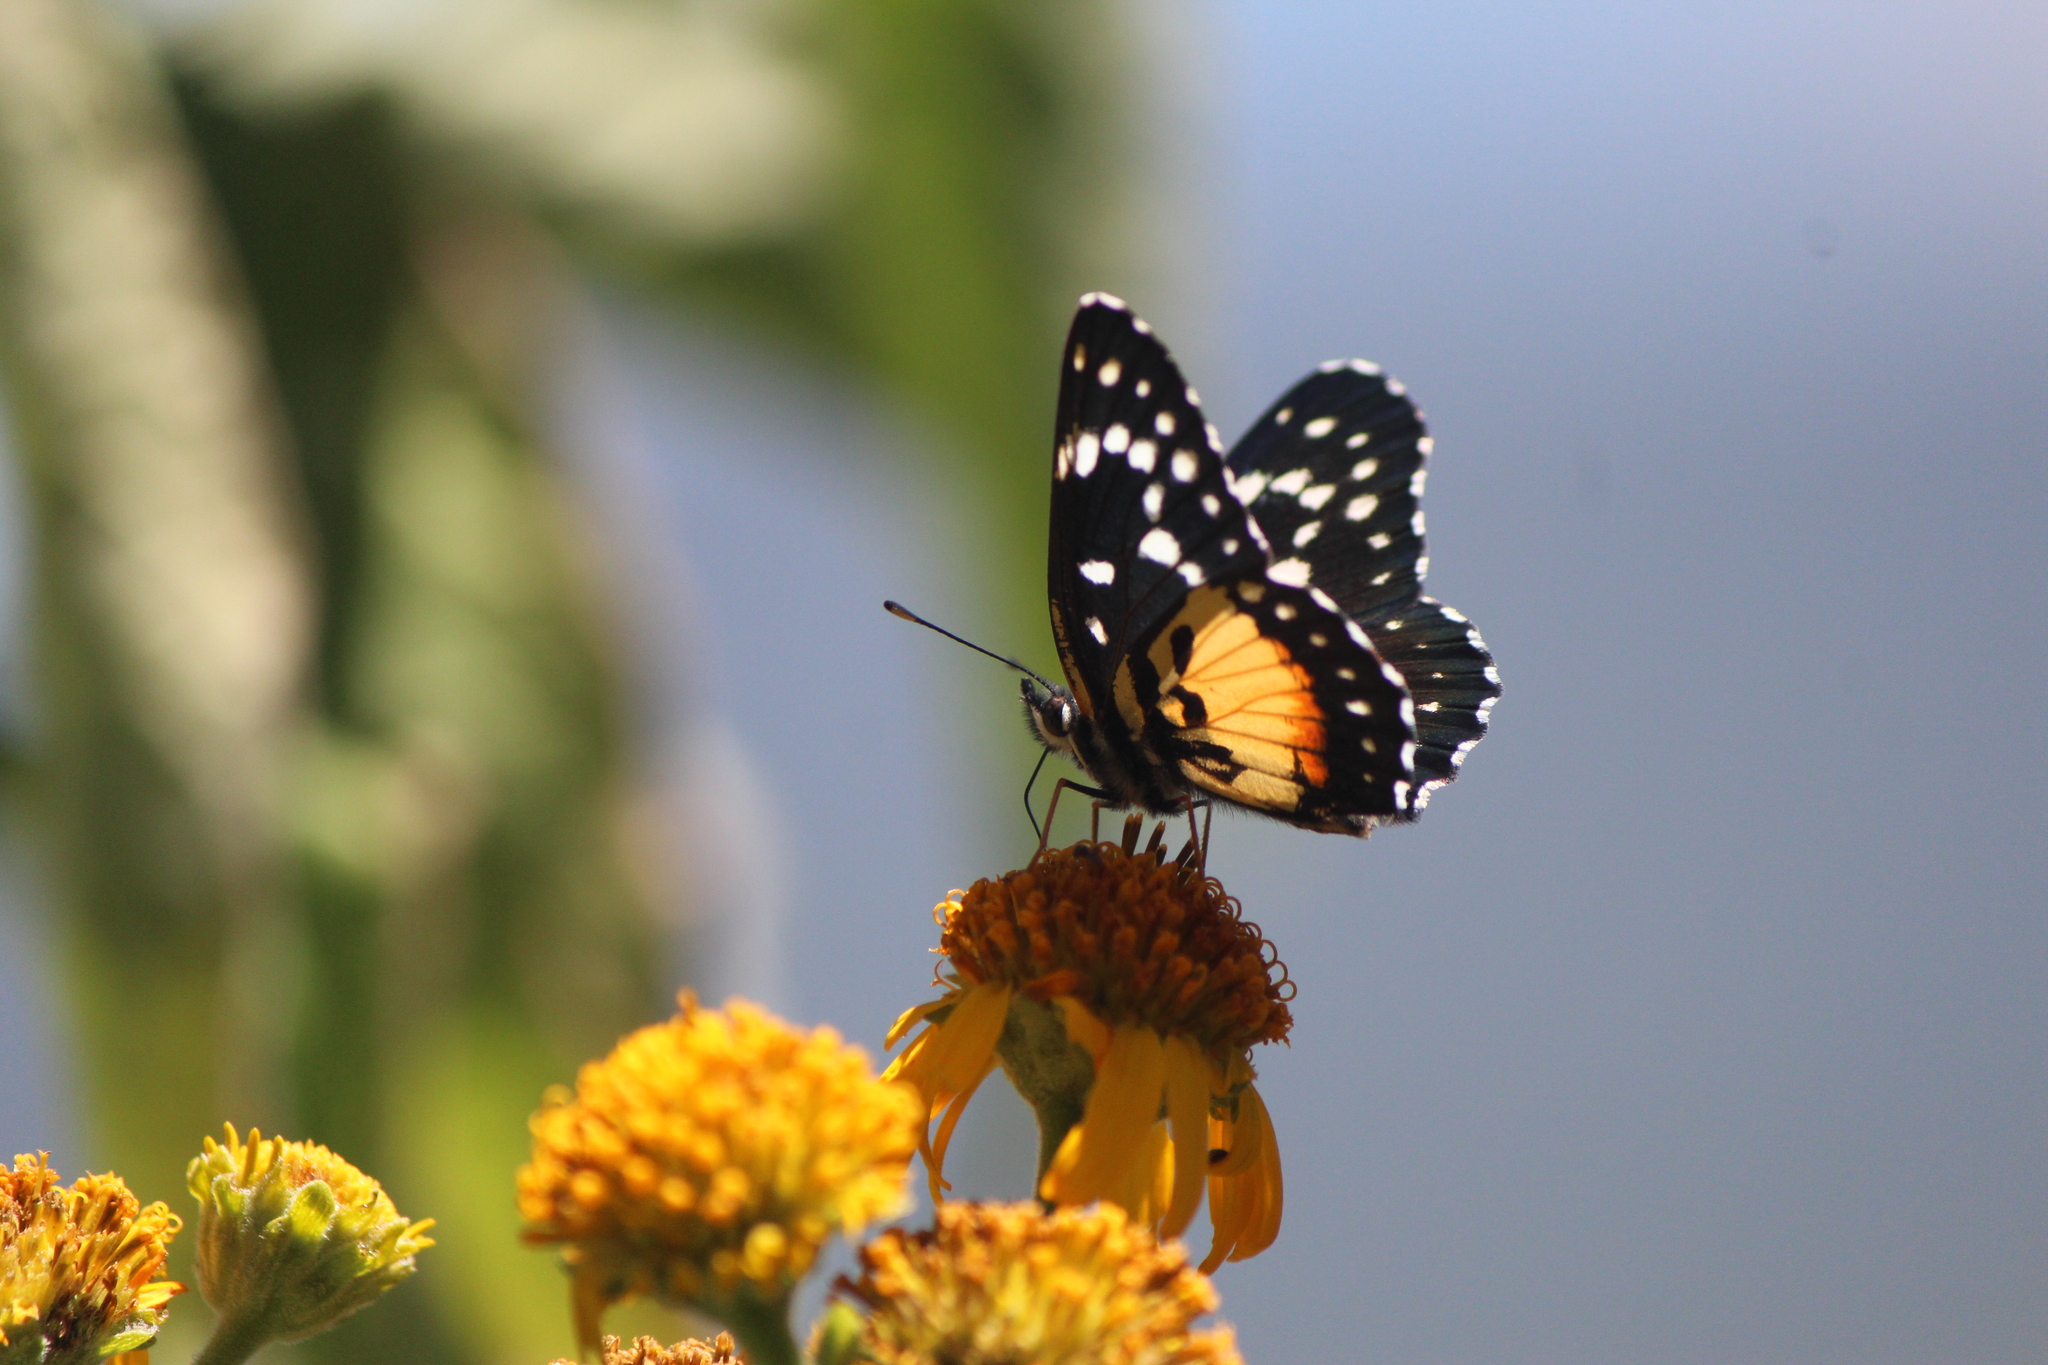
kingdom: Animalia
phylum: Arthropoda
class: Insecta
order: Lepidoptera
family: Nymphalidae
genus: Chlosyne
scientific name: Chlosyne rosita
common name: Rosita patch
